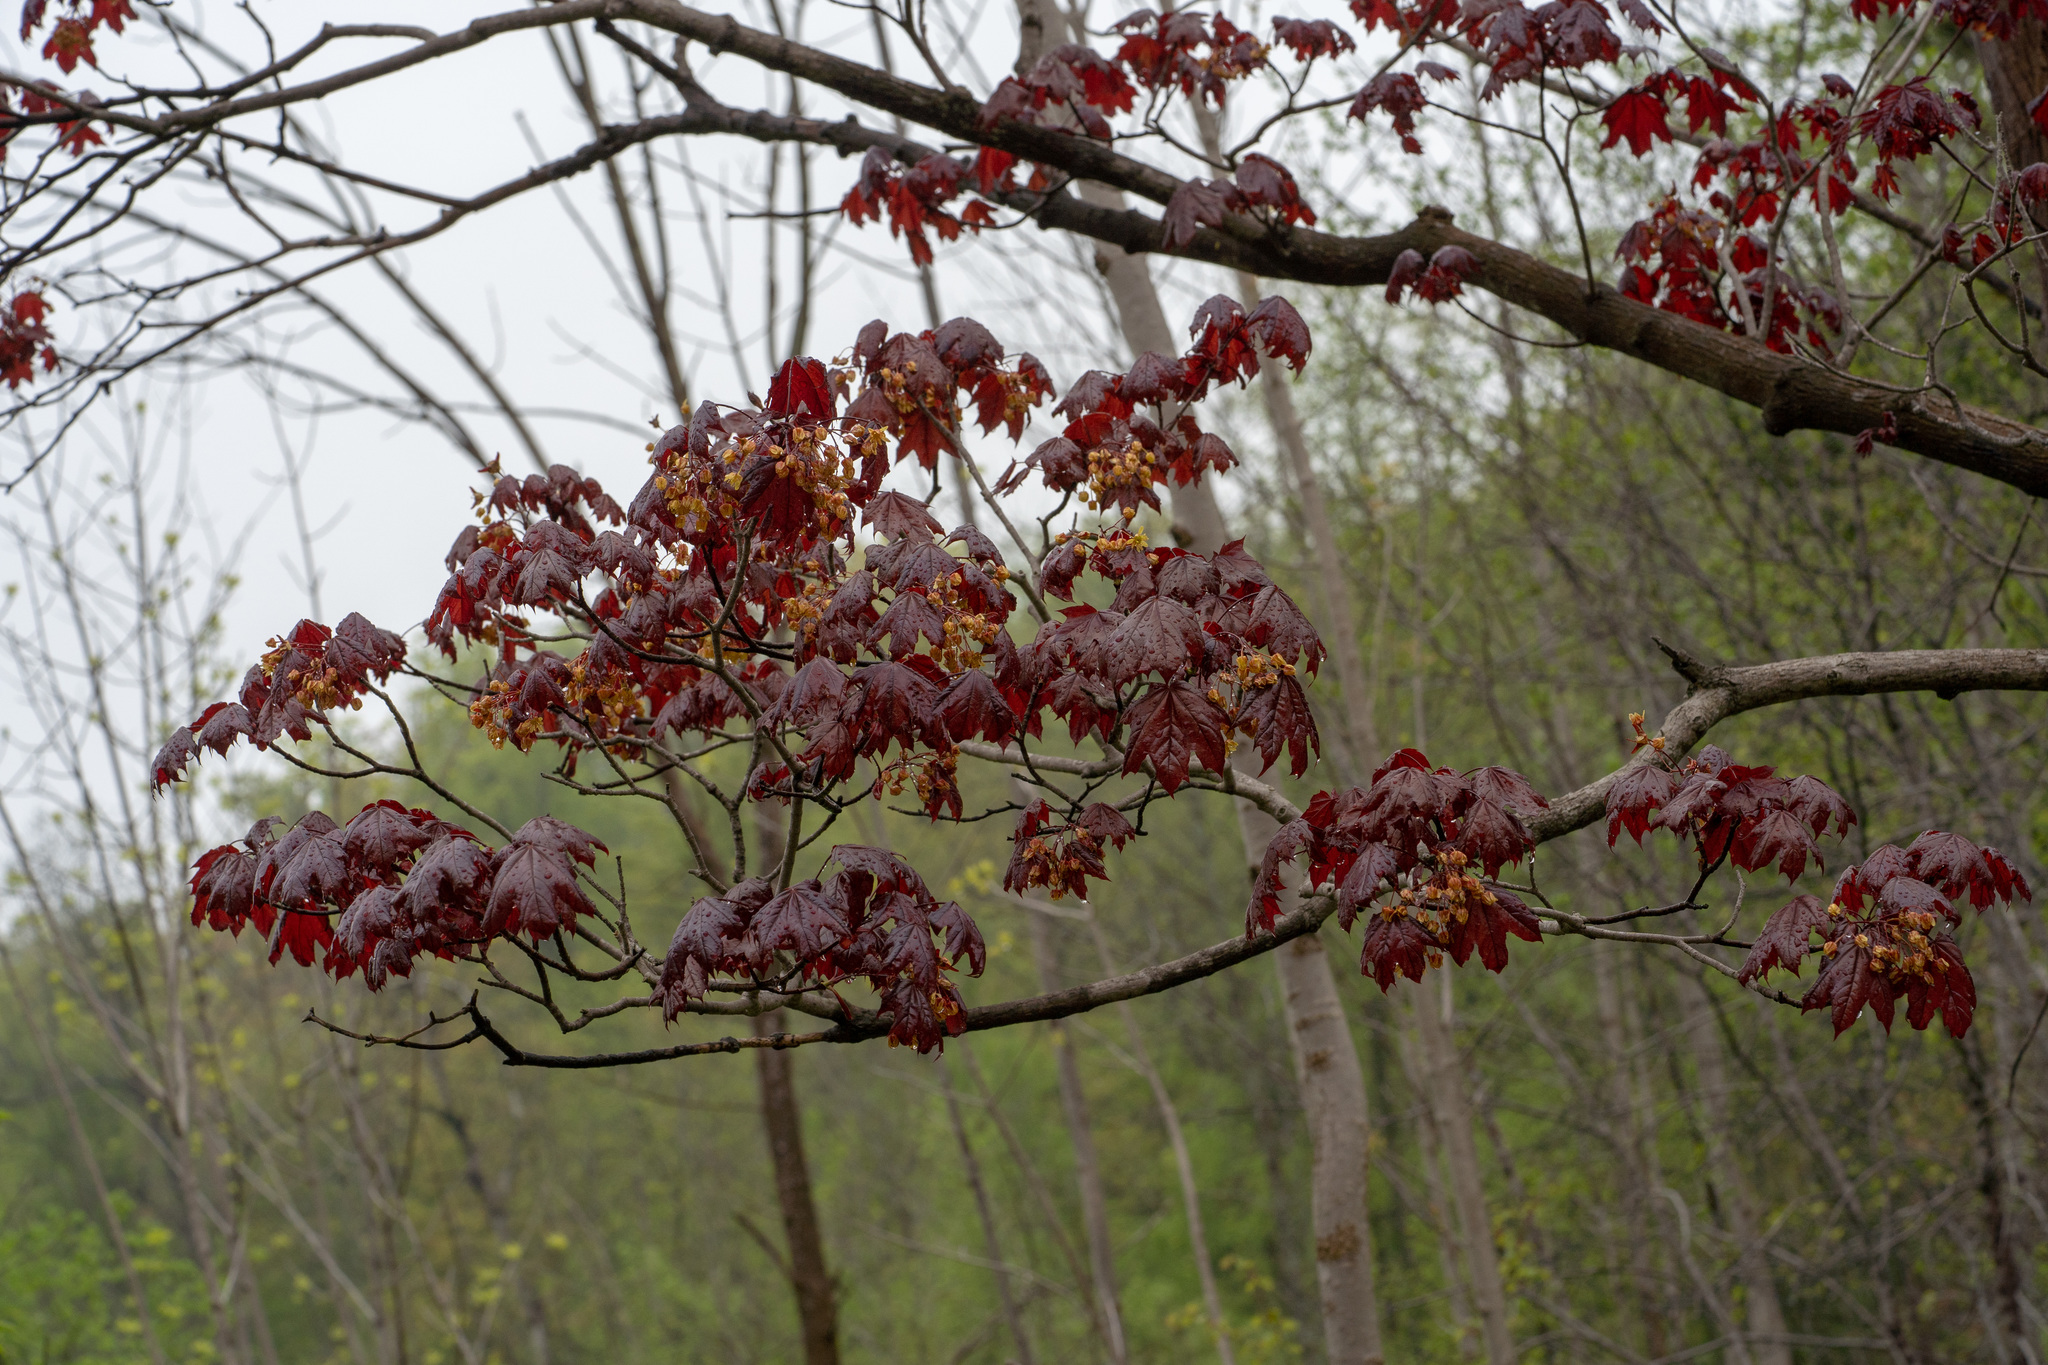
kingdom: Plantae
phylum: Tracheophyta
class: Magnoliopsida
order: Sapindales
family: Sapindaceae
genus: Acer
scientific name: Acer platanoides
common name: Norway maple
